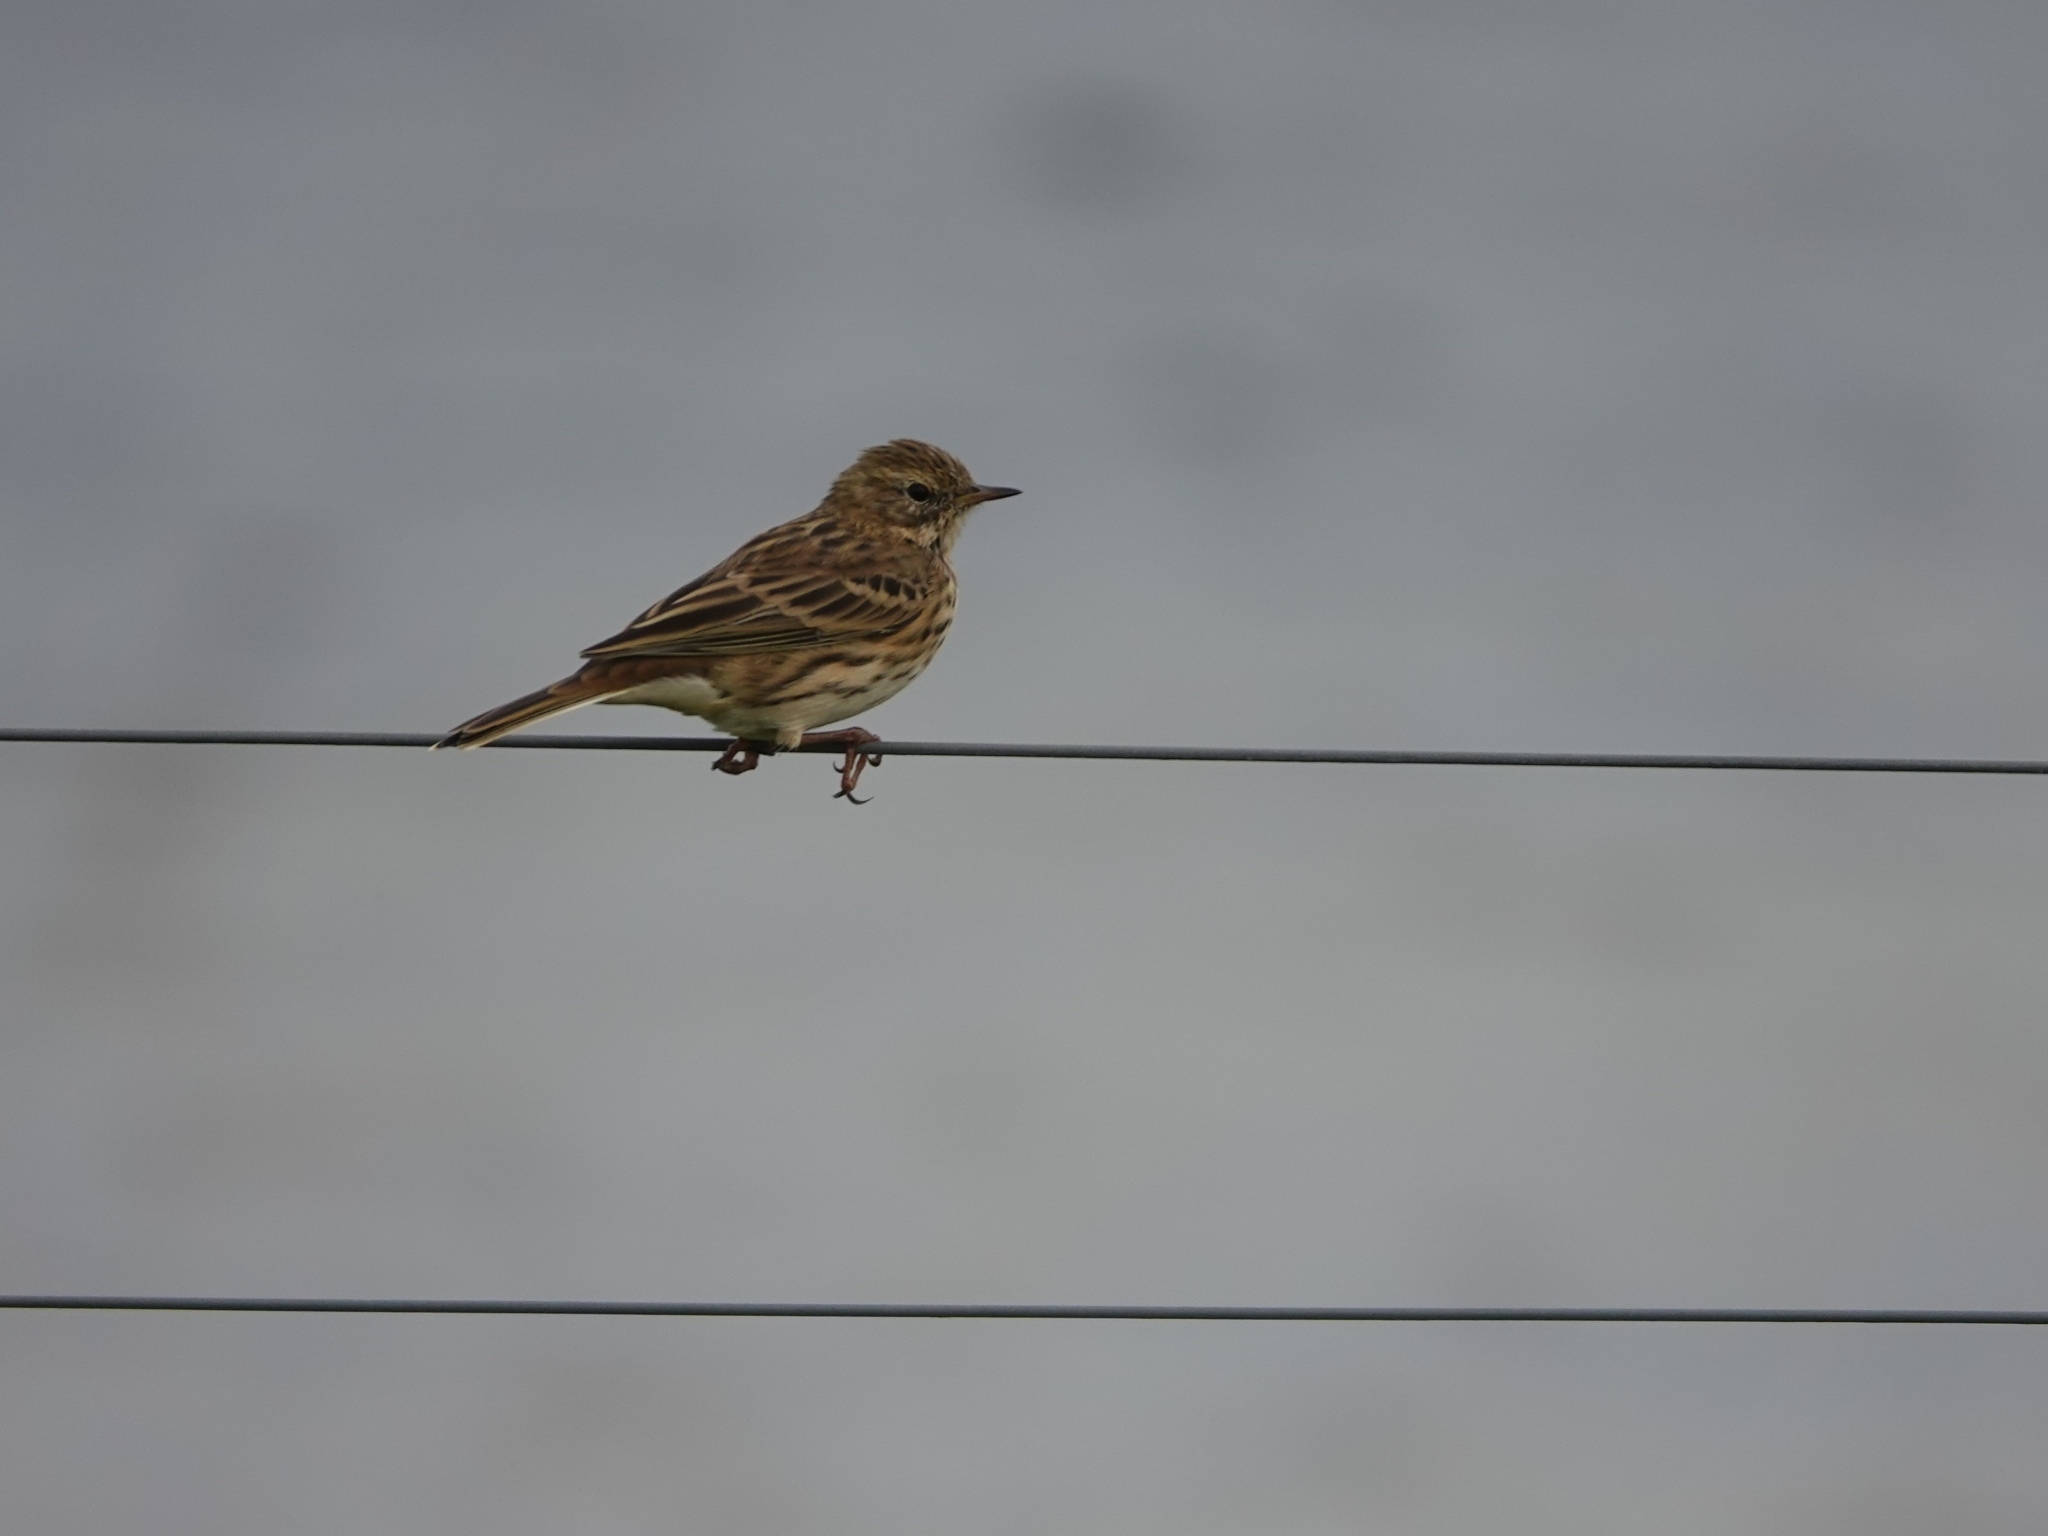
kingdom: Animalia
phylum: Chordata
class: Aves
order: Passeriformes
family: Motacillidae
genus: Anthus
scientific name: Anthus pratensis
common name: Meadow pipit
